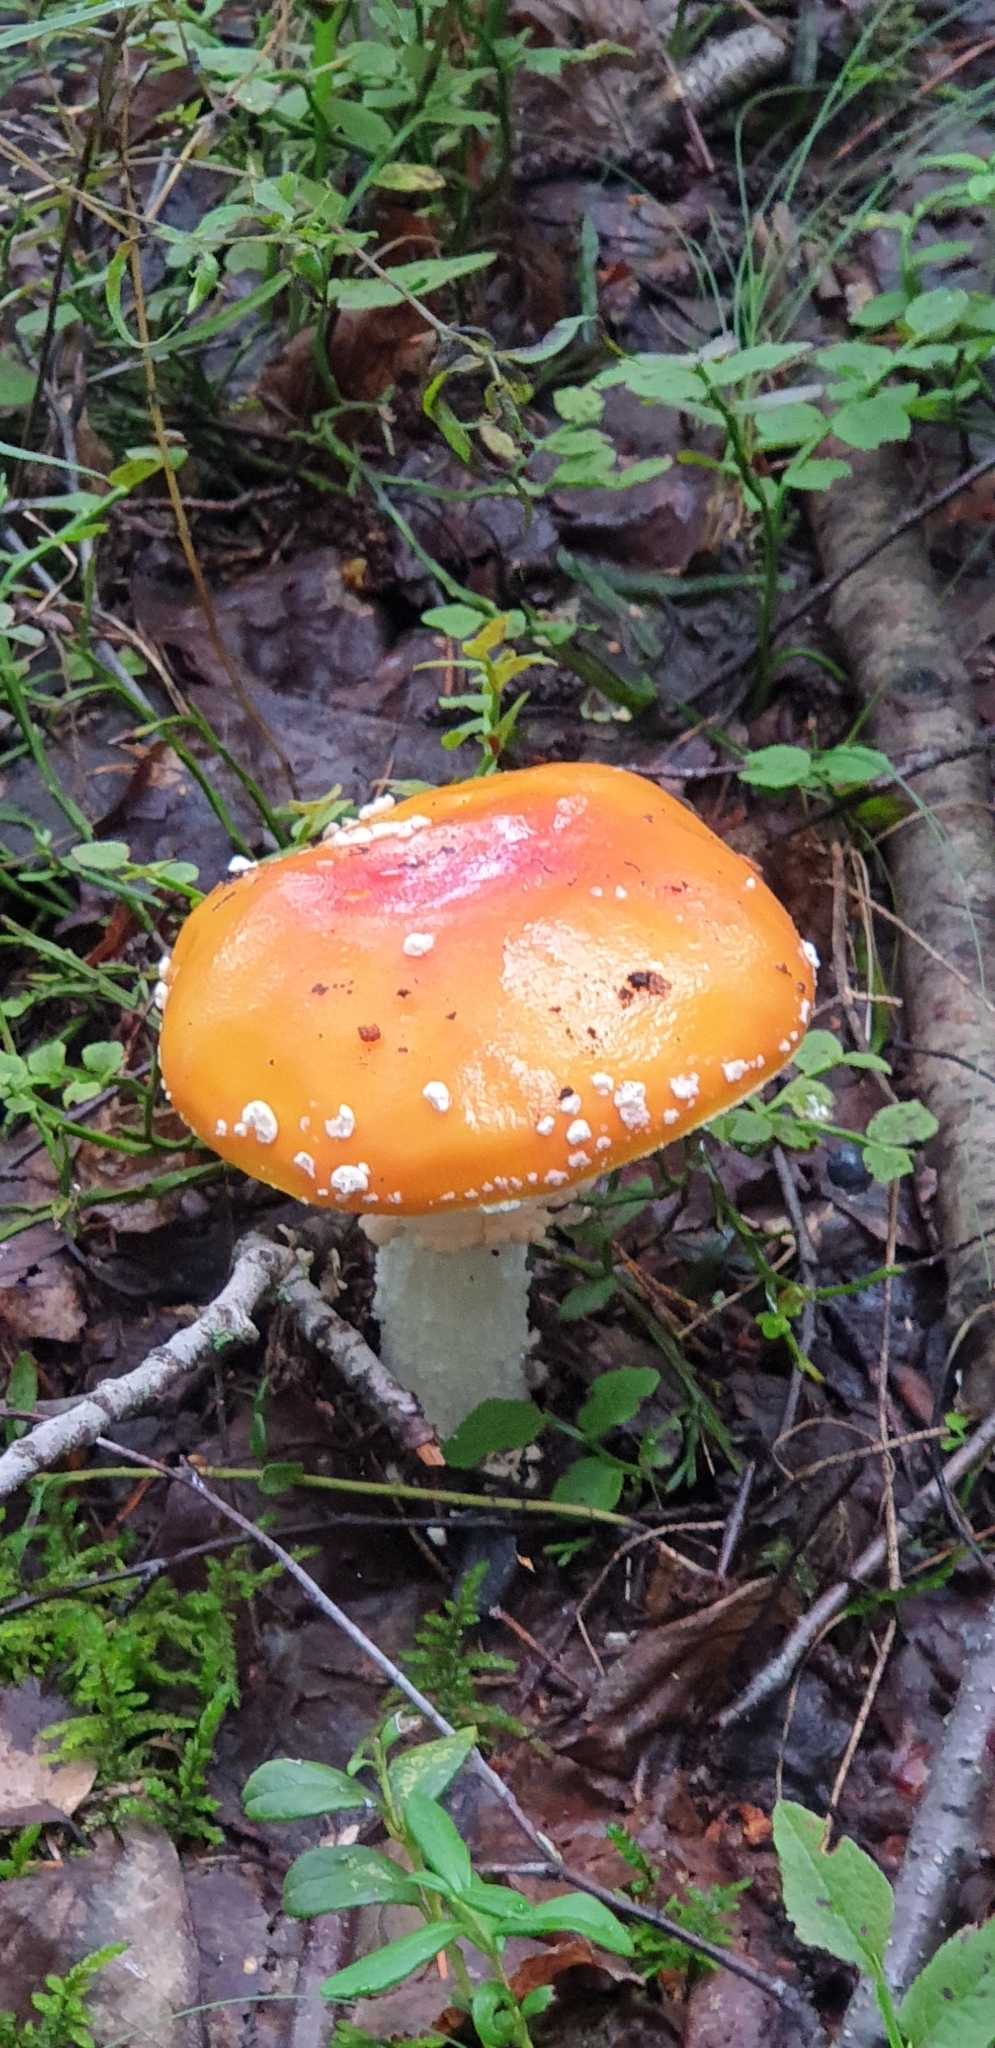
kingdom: Fungi
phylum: Basidiomycota
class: Agaricomycetes
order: Agaricales
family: Amanitaceae
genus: Amanita
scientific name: Amanita muscaria
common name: Fly agaric
